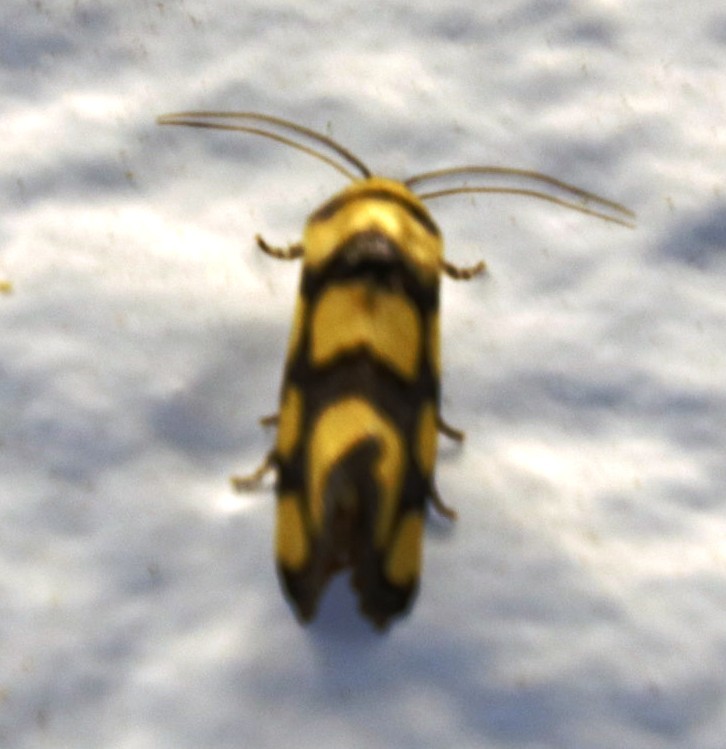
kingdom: Animalia
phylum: Arthropoda
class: Insecta
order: Lepidoptera
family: Noctuidae
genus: Acontia
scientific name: Acontia guttifera
